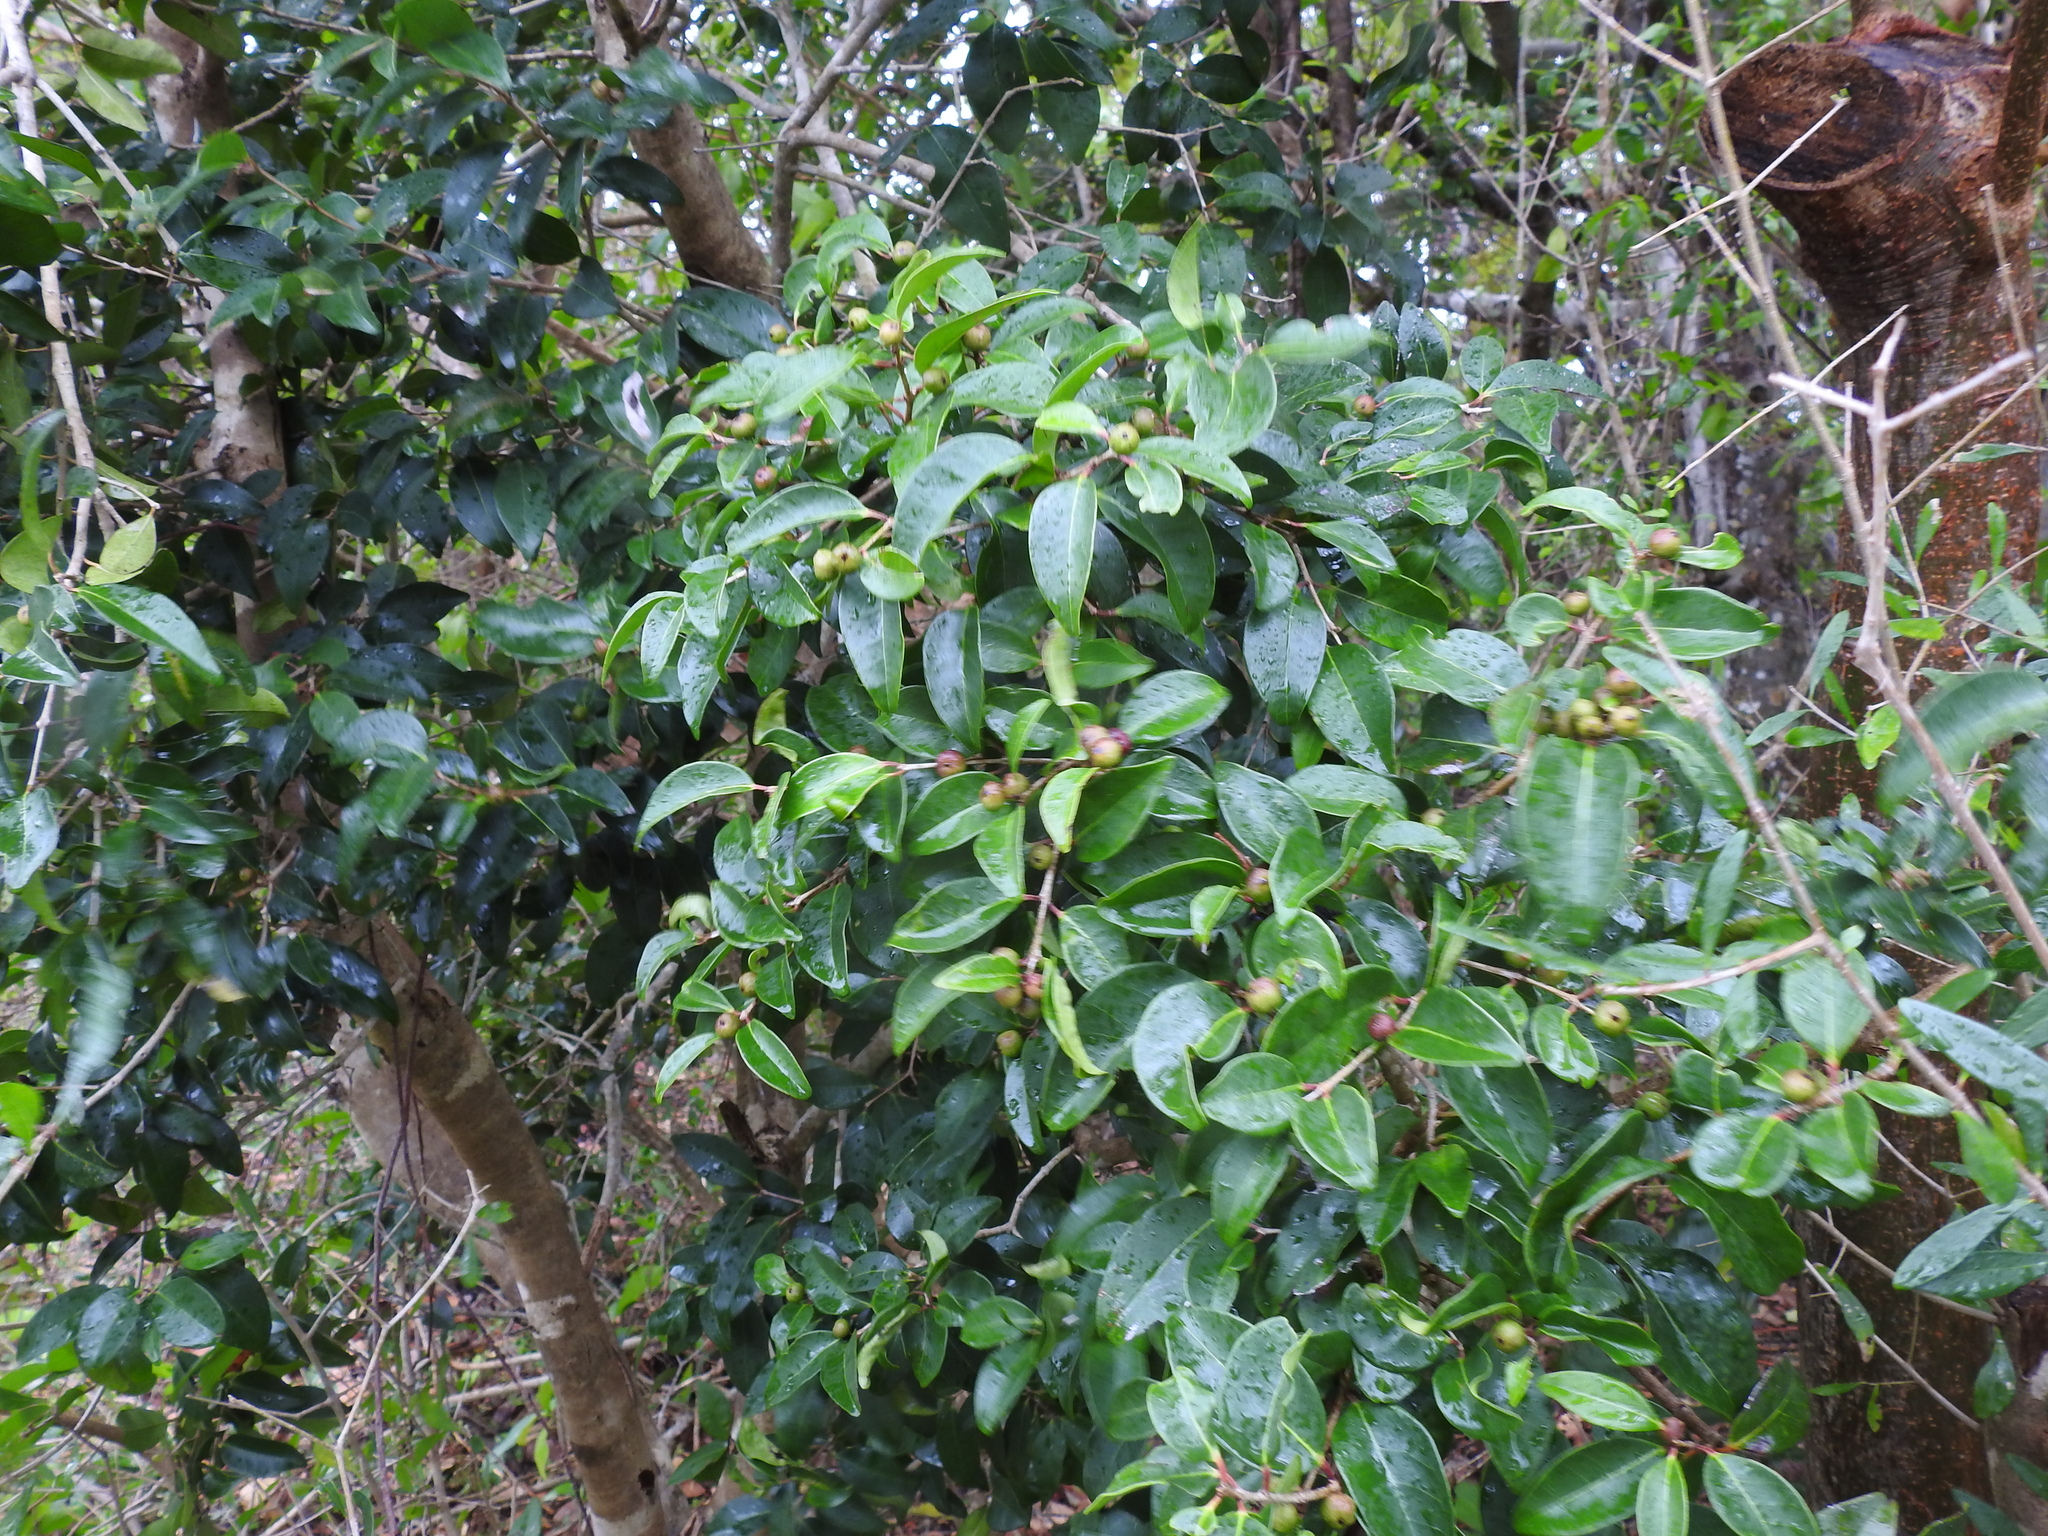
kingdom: Plantae
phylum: Tracheophyta
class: Magnoliopsida
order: Myrtales
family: Myrtaceae
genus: Eugenia
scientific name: Eugenia axillaris
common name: Choaky berry
